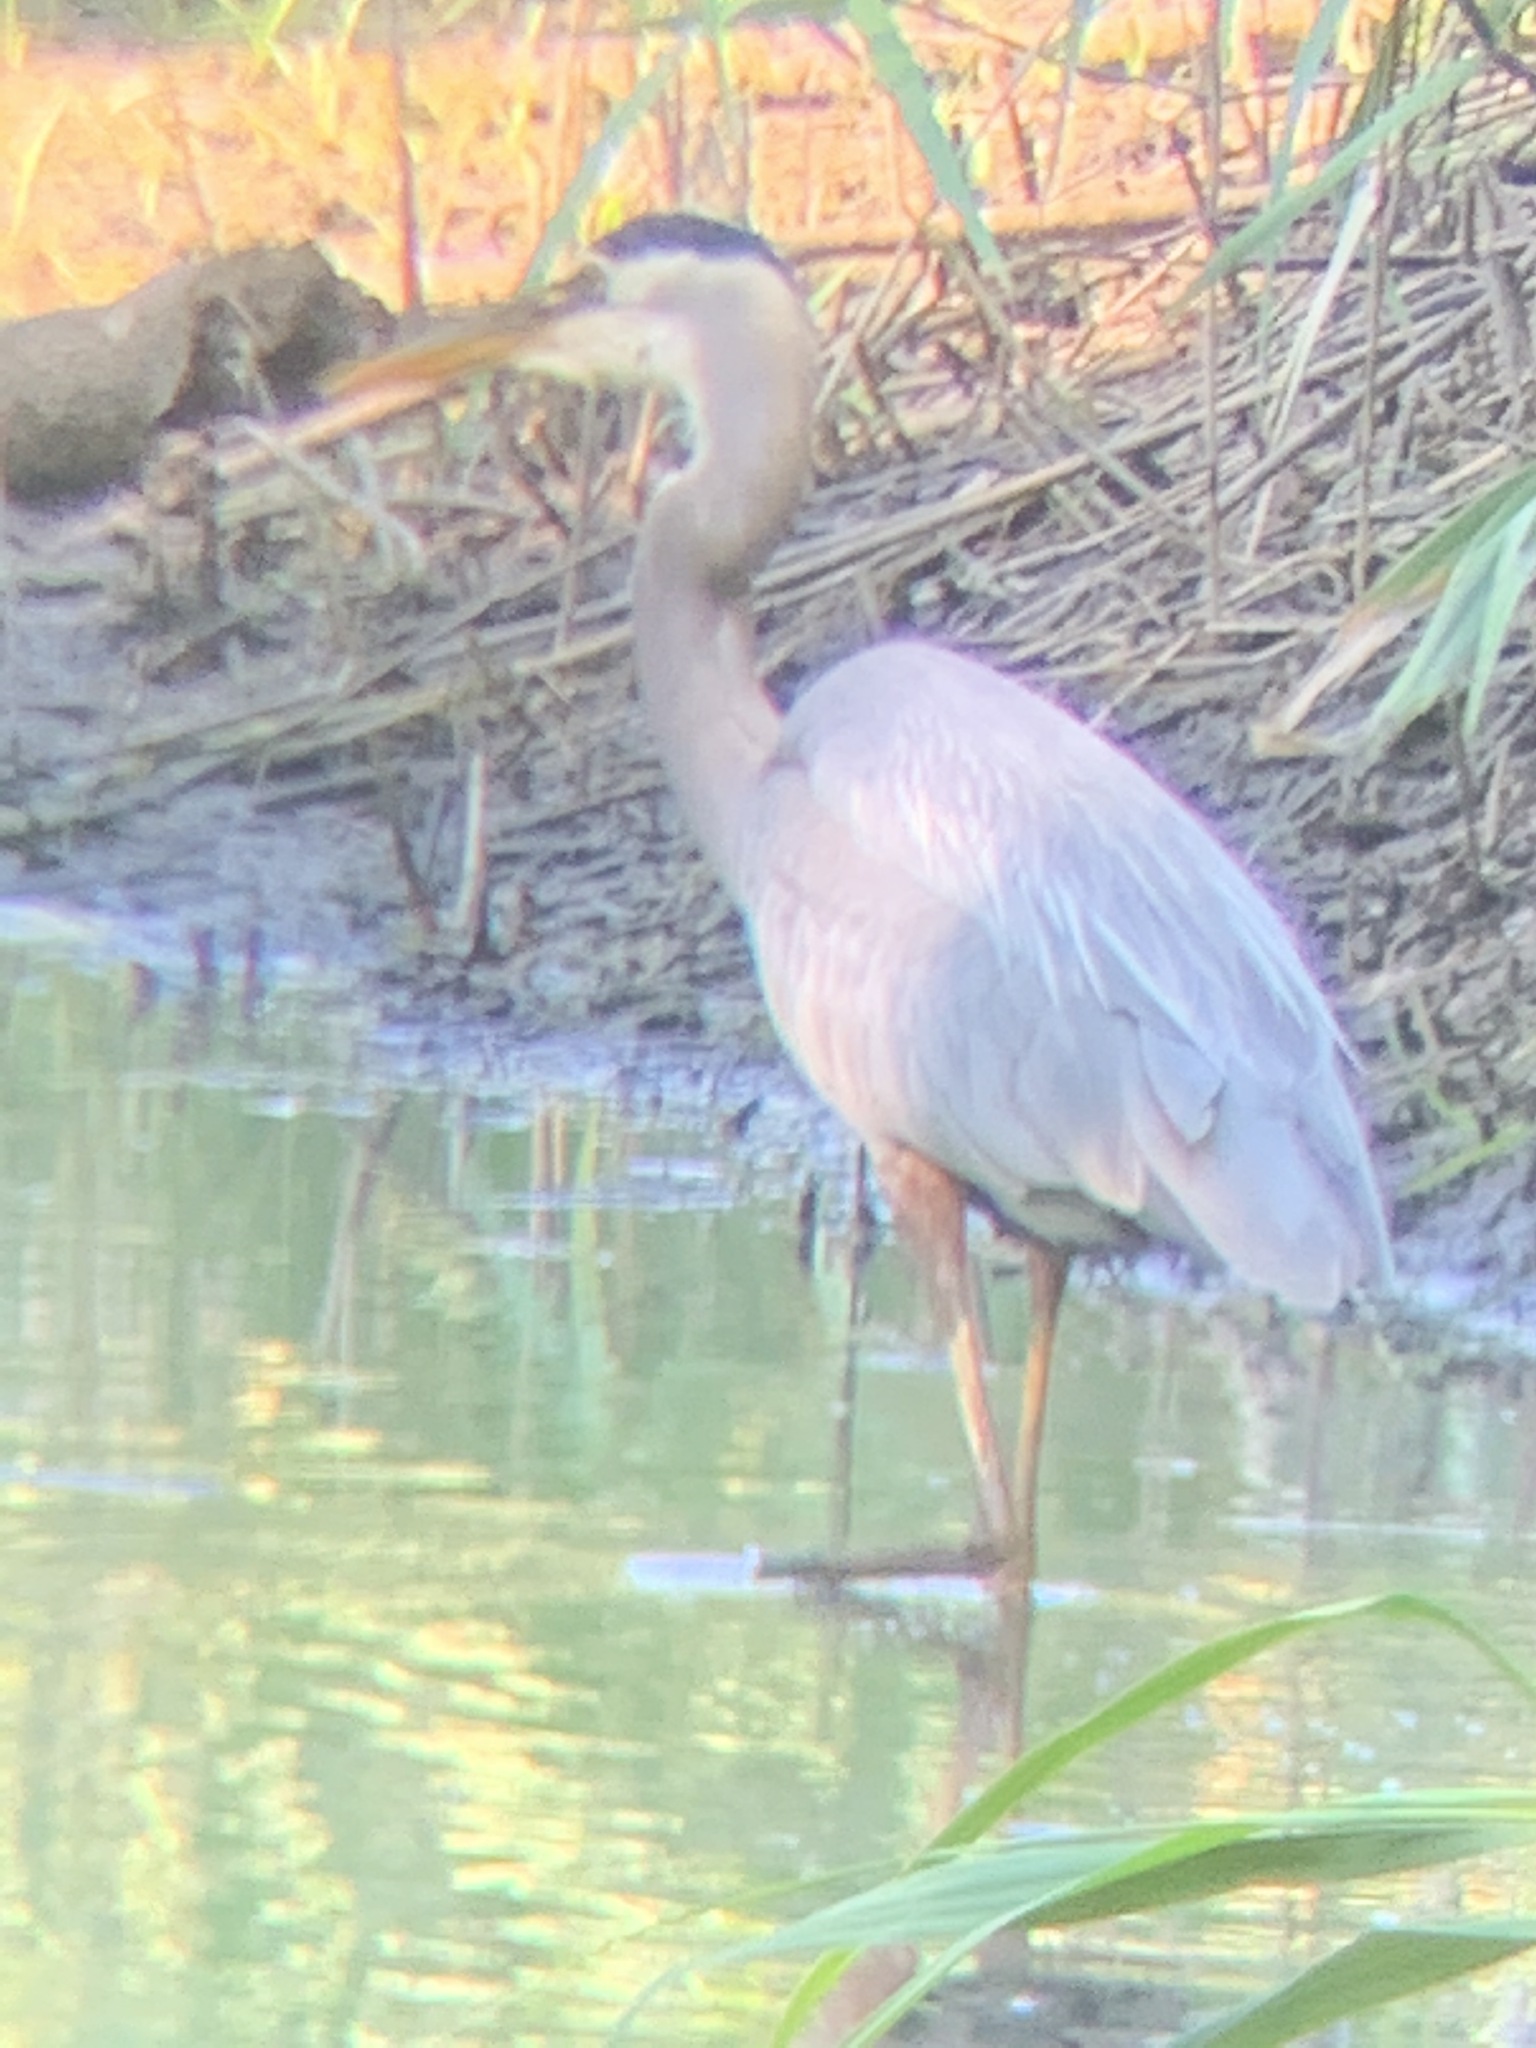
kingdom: Animalia
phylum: Chordata
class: Aves
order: Pelecaniformes
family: Ardeidae
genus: Ardea
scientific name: Ardea herodias
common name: Great blue heron
